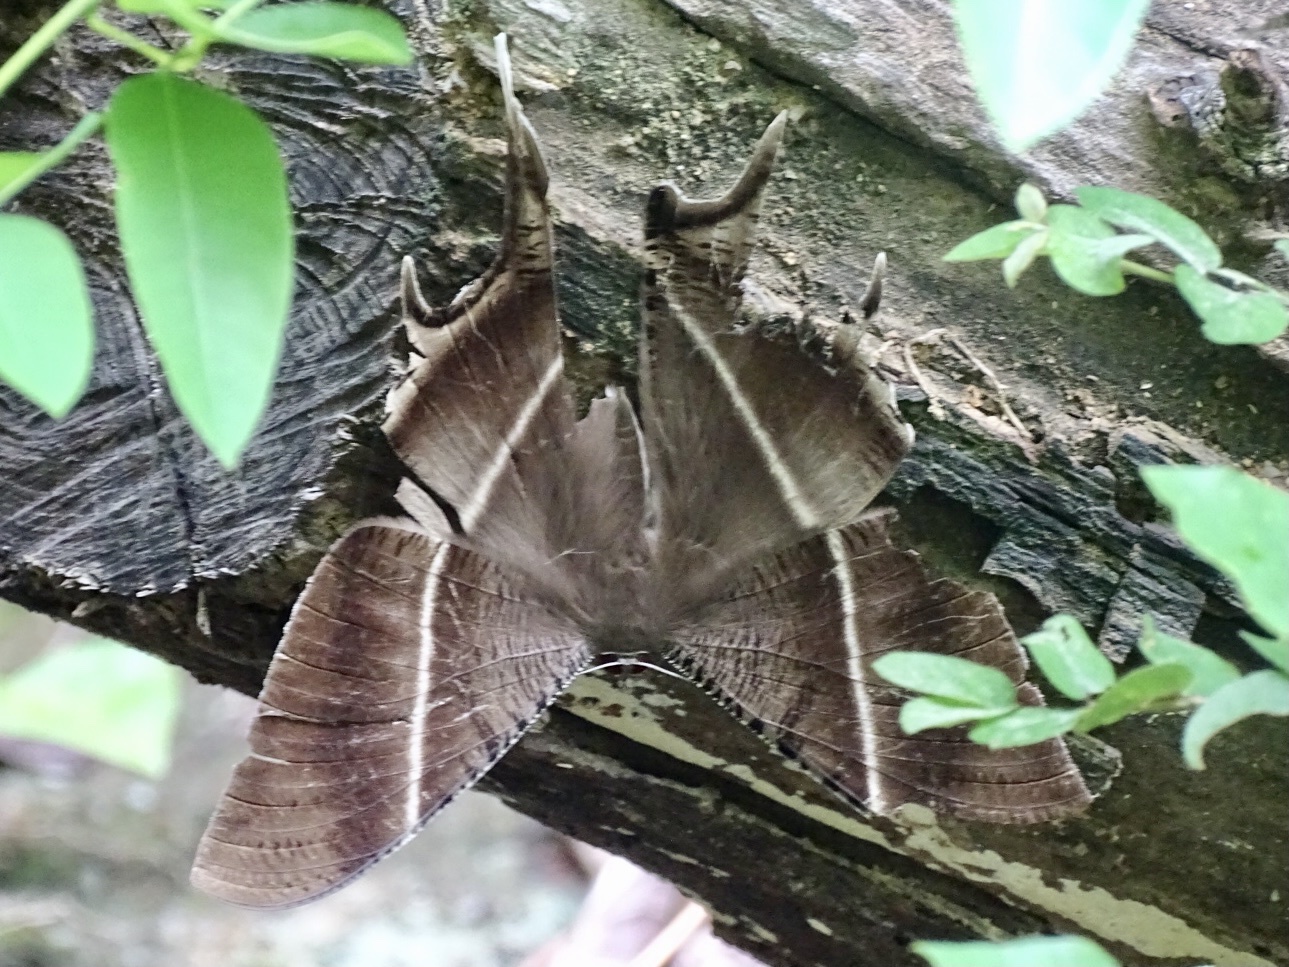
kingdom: Animalia
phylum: Arthropoda
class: Insecta
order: Lepidoptera
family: Uraniidae
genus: Lyssa
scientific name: Lyssa zampa
